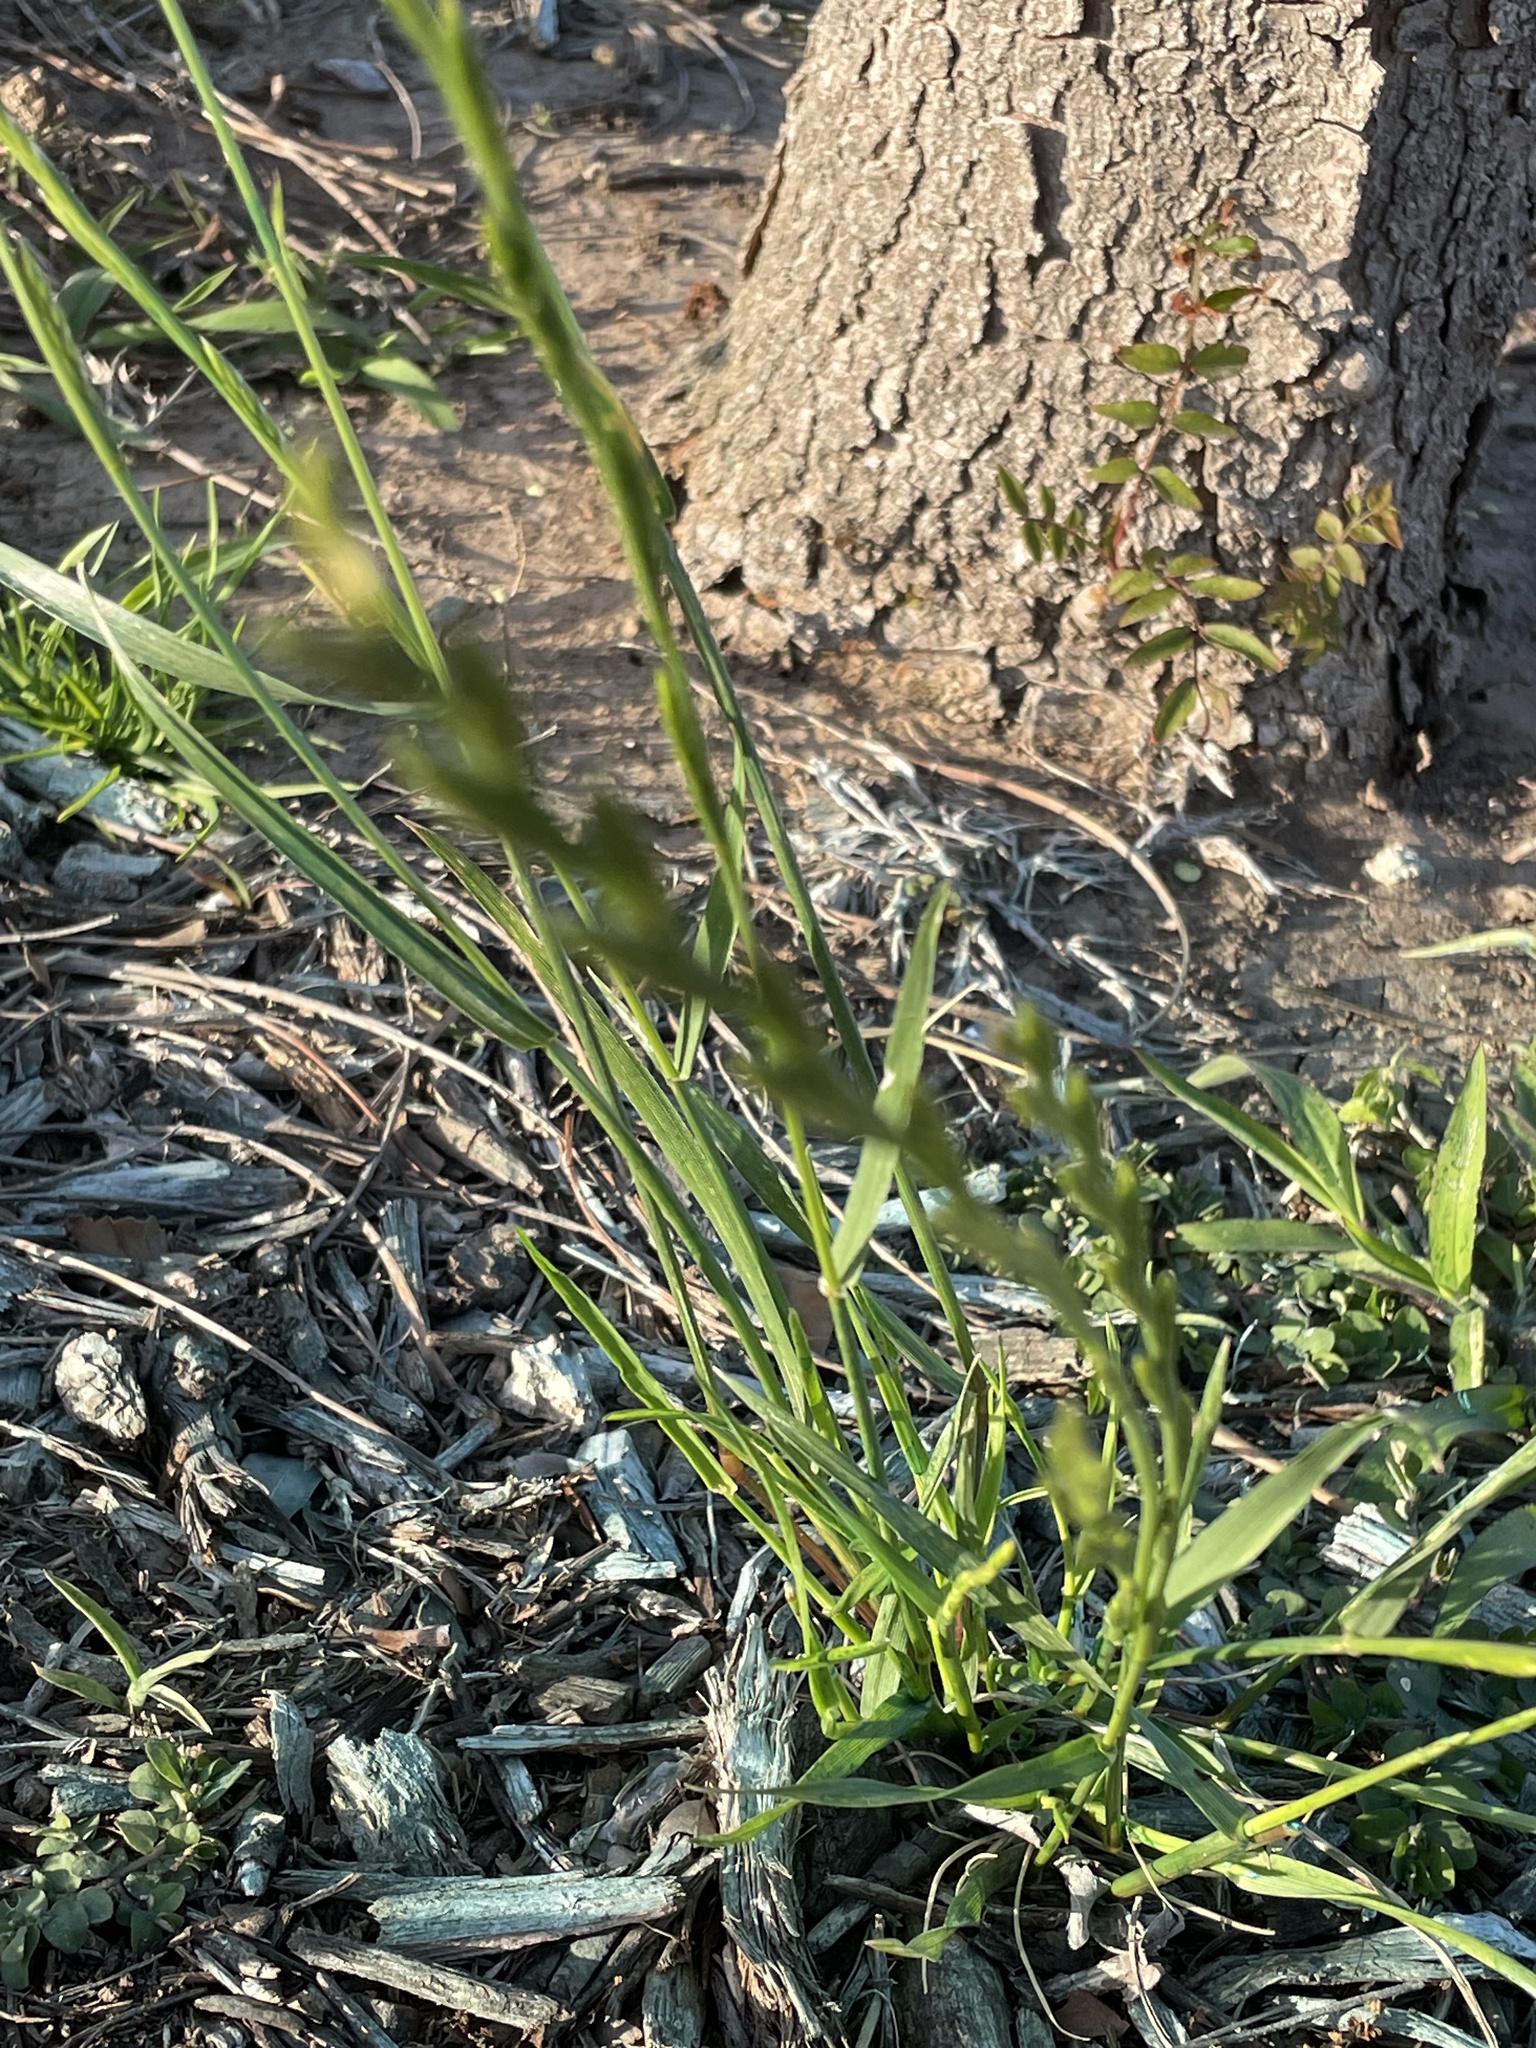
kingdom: Plantae
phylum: Tracheophyta
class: Liliopsida
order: Poales
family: Poaceae
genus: Lolium
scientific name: Lolium perenne
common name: Perennial ryegrass
